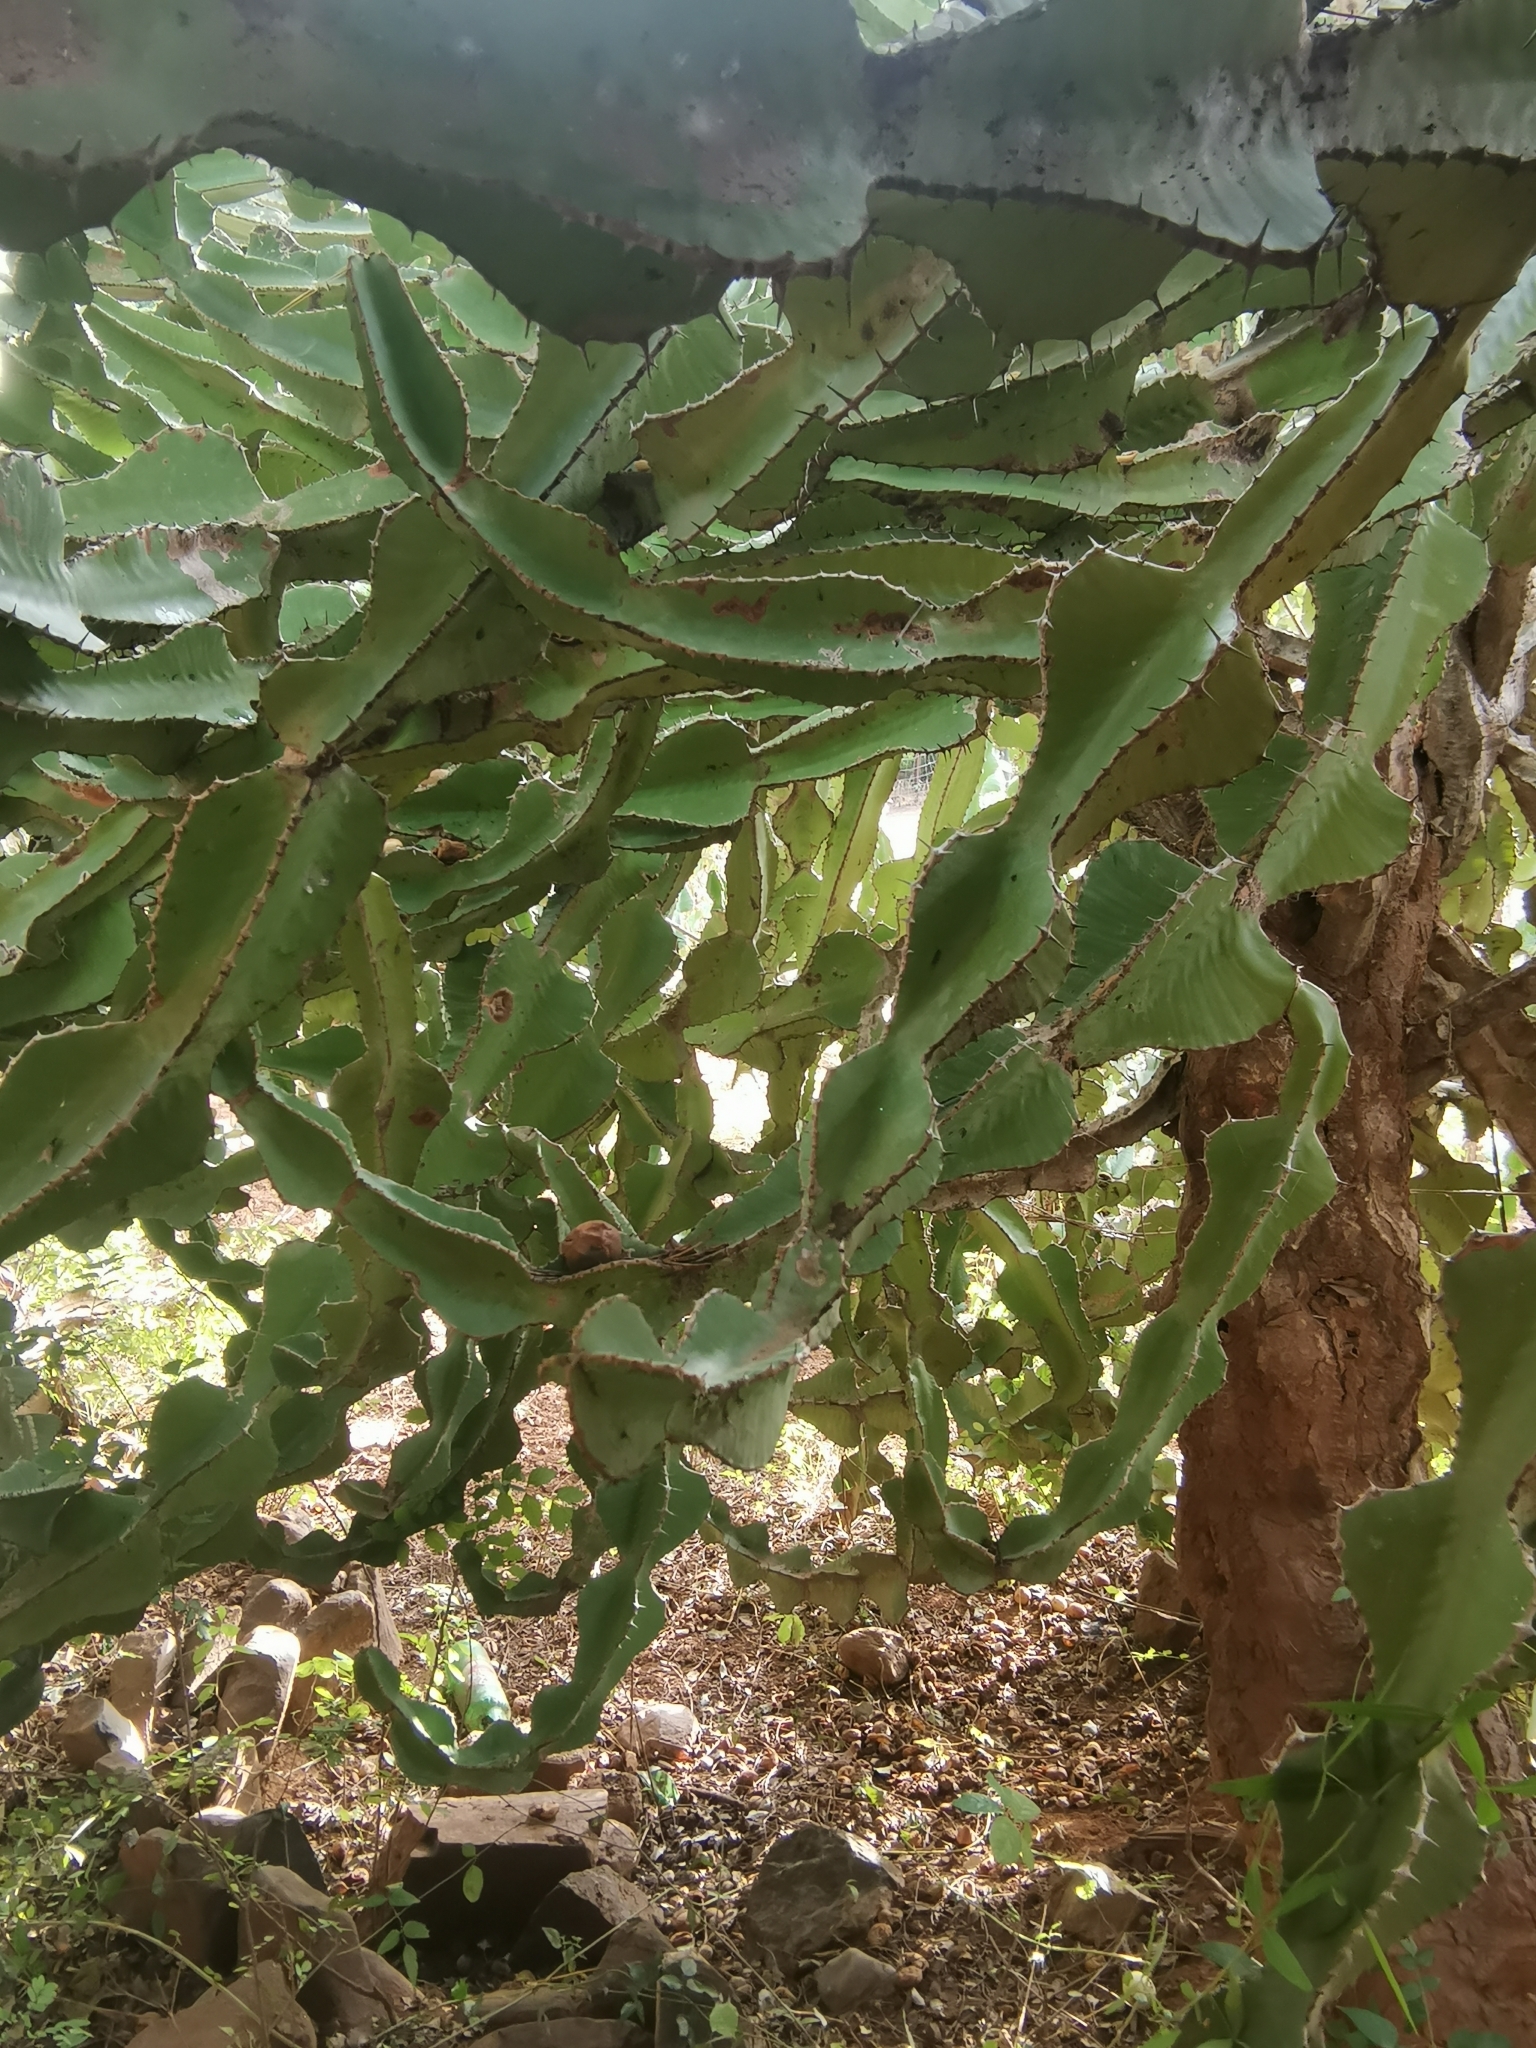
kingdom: Plantae
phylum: Tracheophyta
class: Magnoliopsida
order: Malpighiales
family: Euphorbiaceae
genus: Euphorbia
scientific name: Euphorbia cooperi
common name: Candelabra tree
